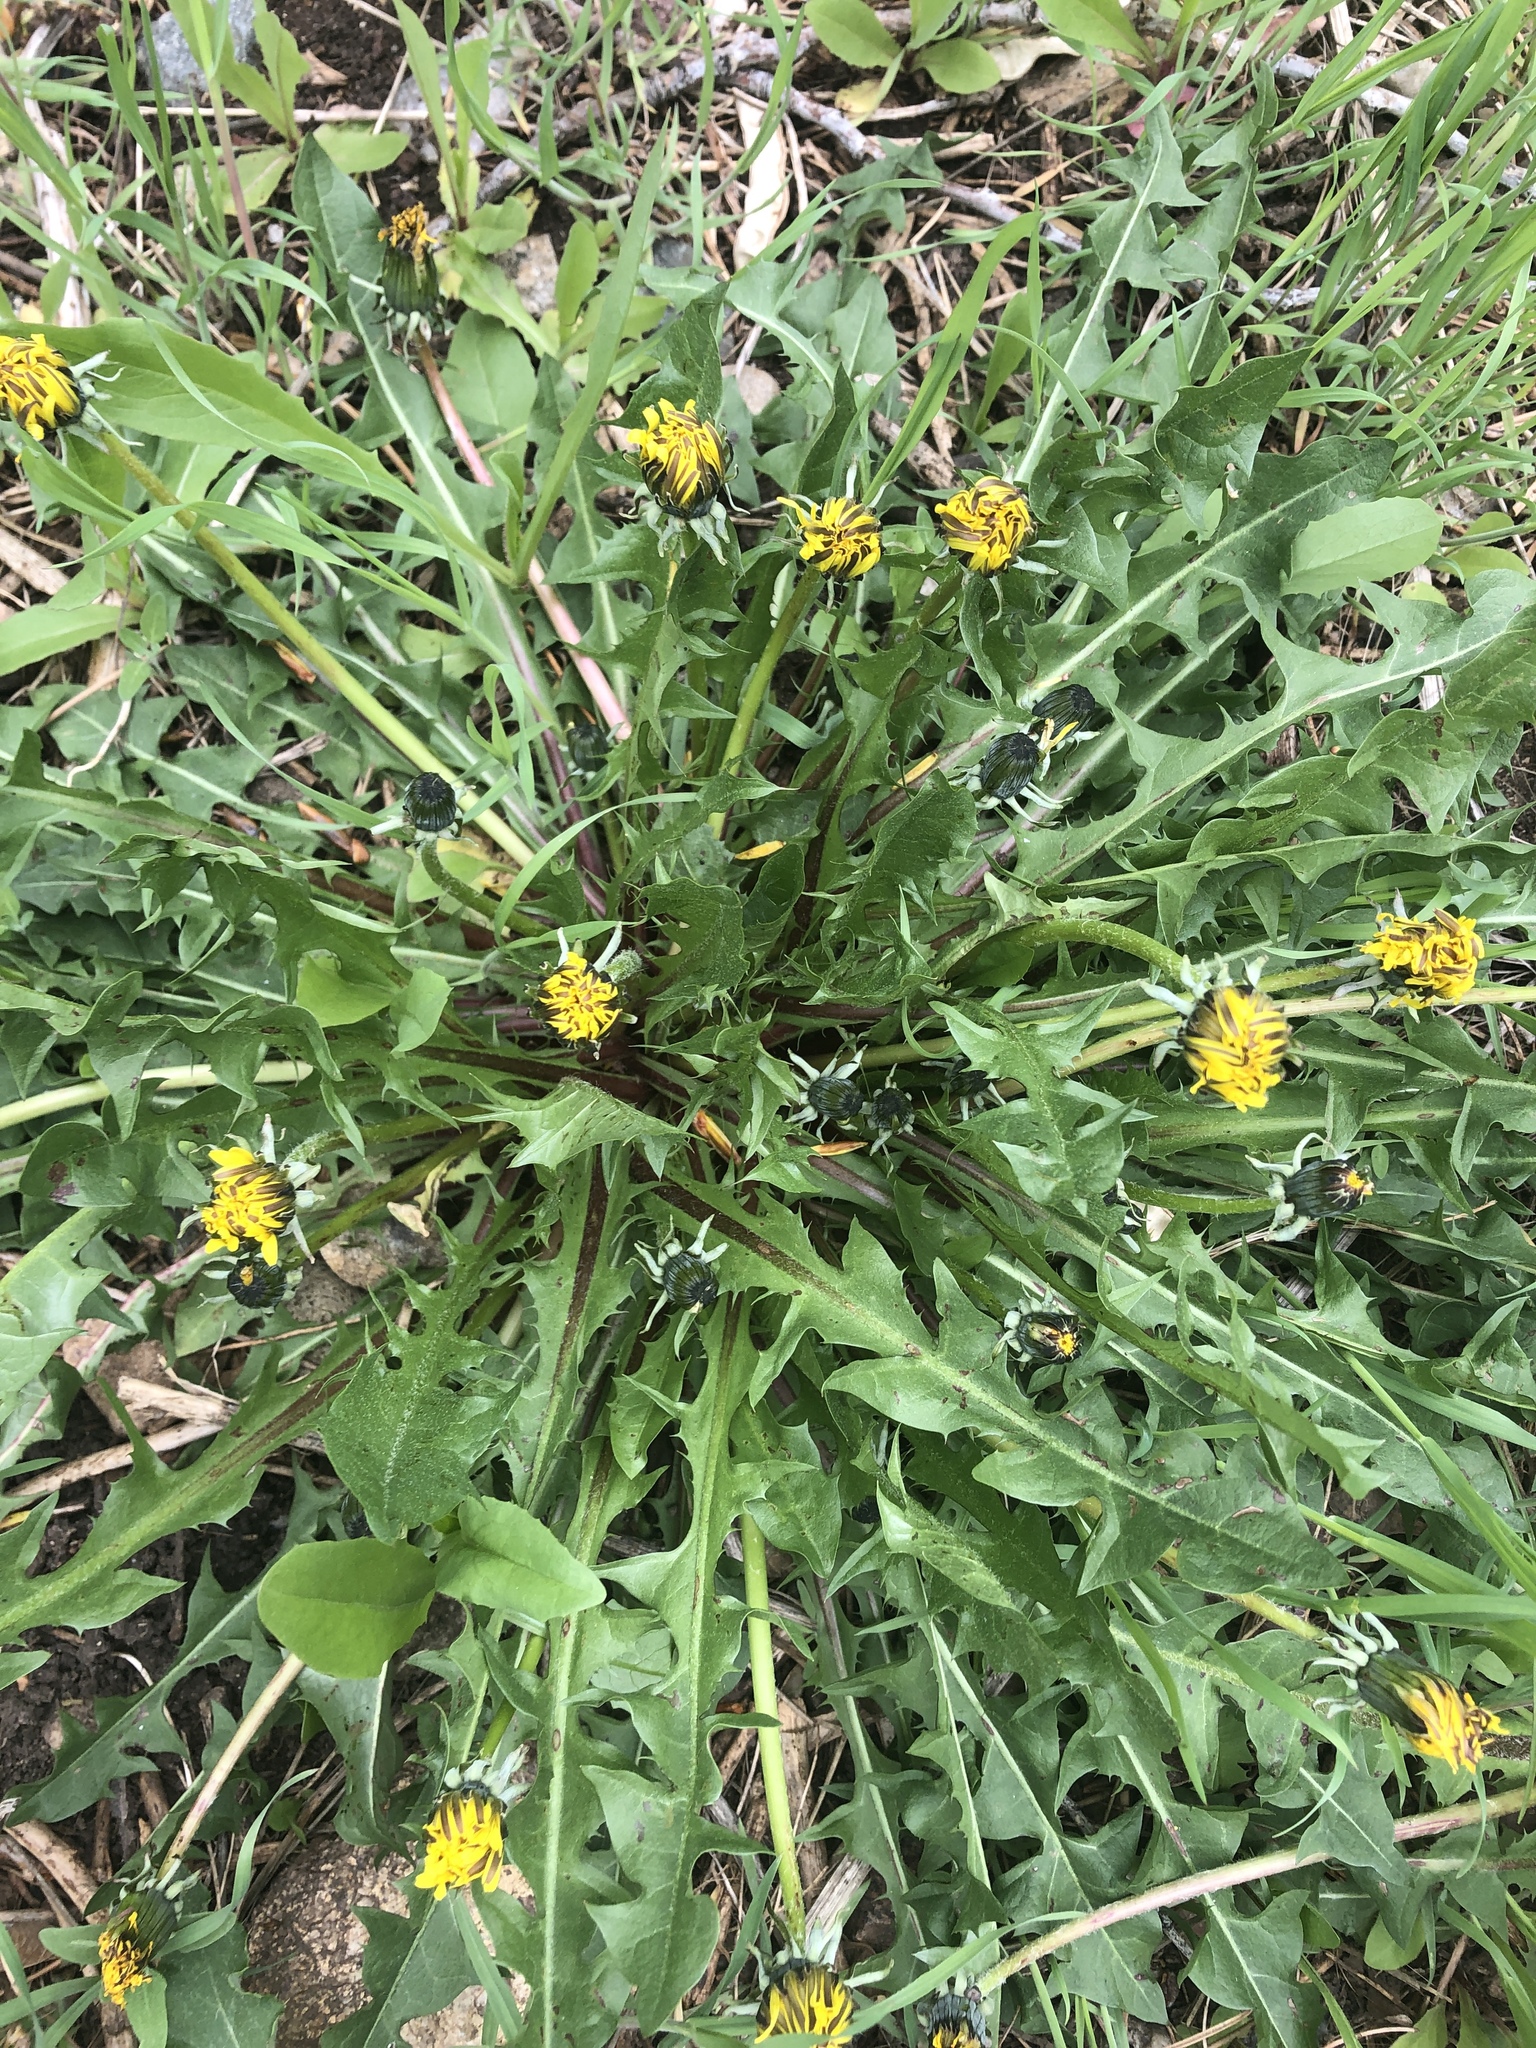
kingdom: Plantae
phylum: Tracheophyta
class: Magnoliopsida
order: Asterales
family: Asteraceae
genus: Taraxacum
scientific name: Taraxacum officinale
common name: Common dandelion
